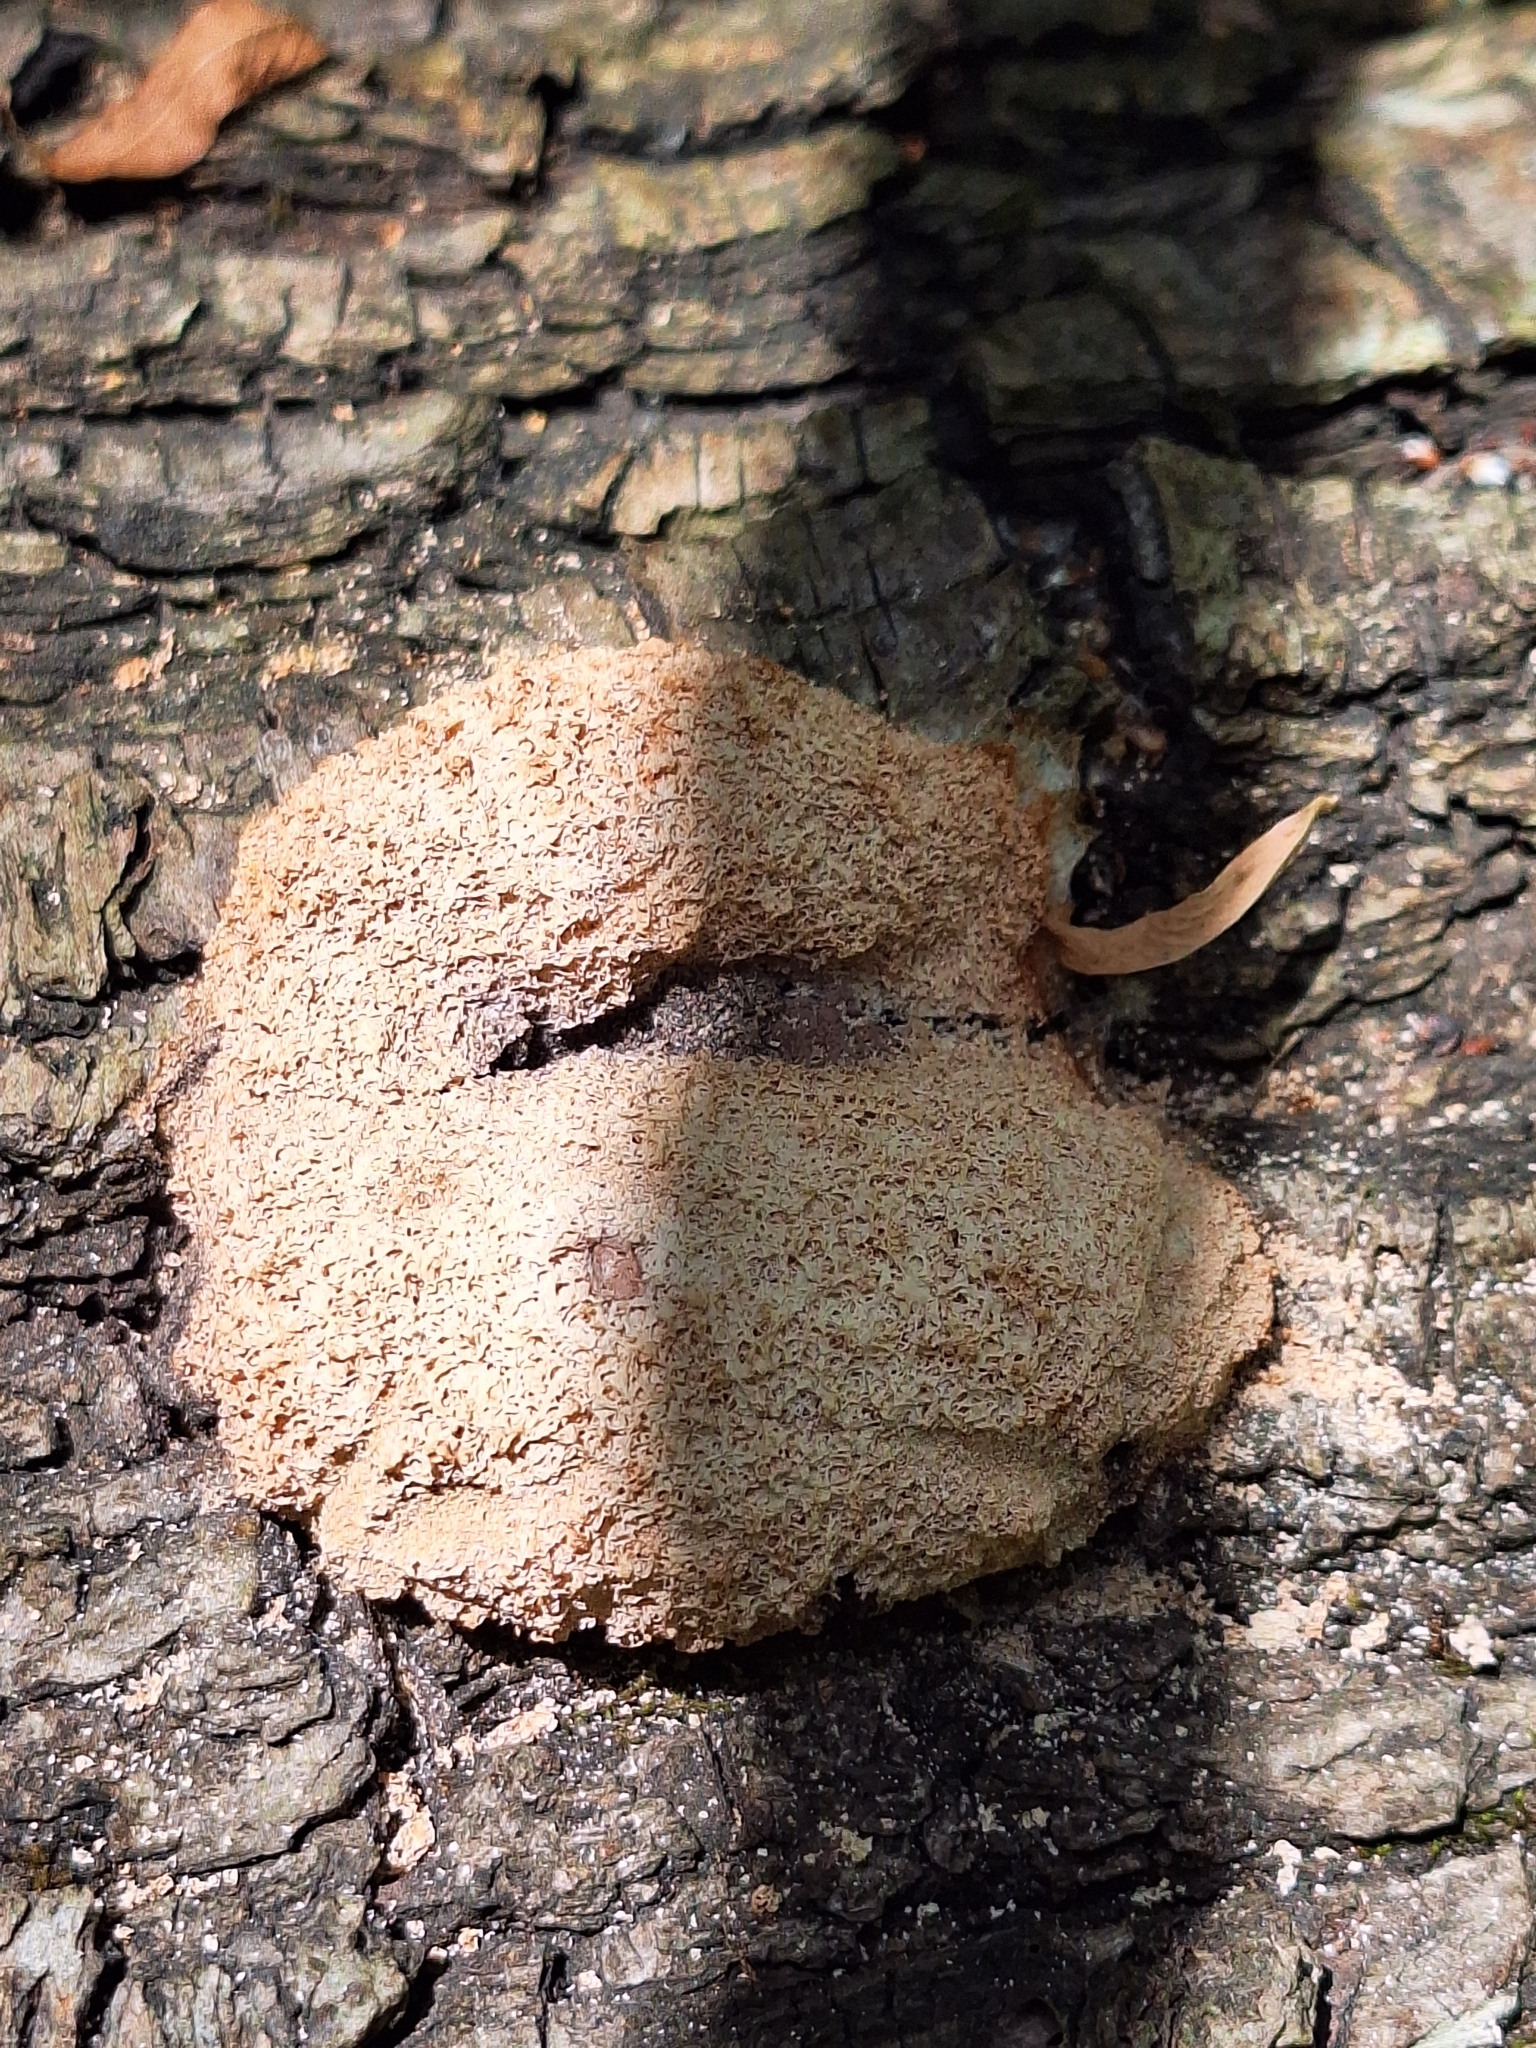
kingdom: Protozoa
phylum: Mycetozoa
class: Myxomycetes
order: Physarales
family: Physaraceae
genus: Fuligo
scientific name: Fuligo septica
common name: Dog vomit slime mold
